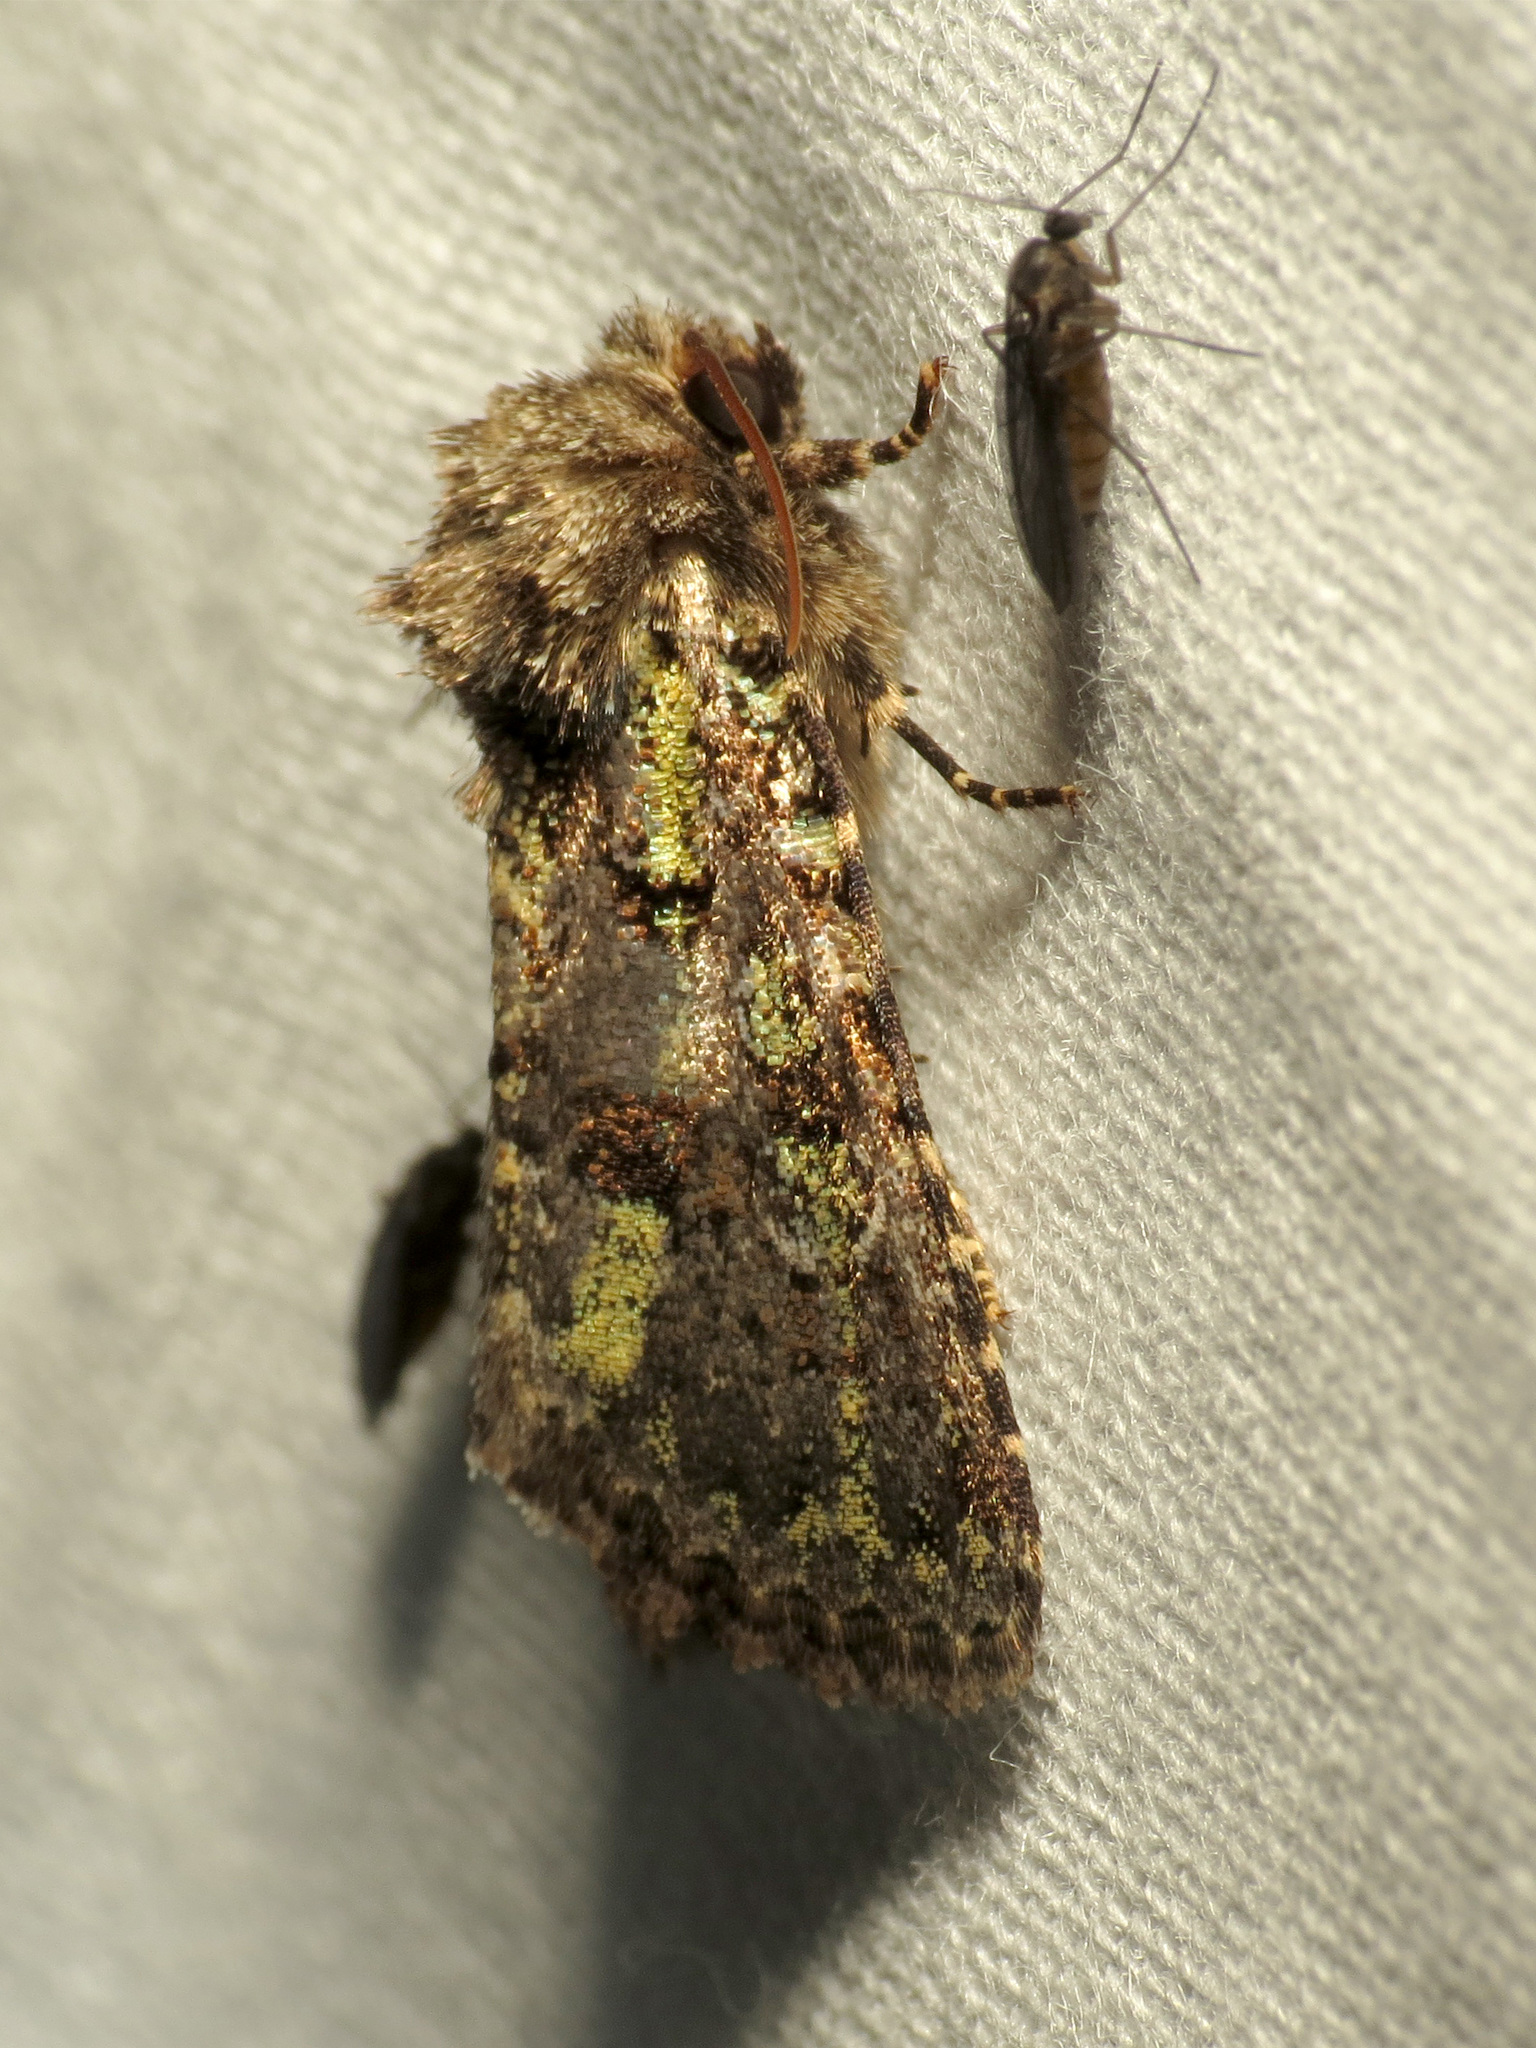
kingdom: Animalia
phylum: Arthropoda
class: Insecta
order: Lepidoptera
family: Noctuidae
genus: Paramiana
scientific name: Paramiana smaragdina
